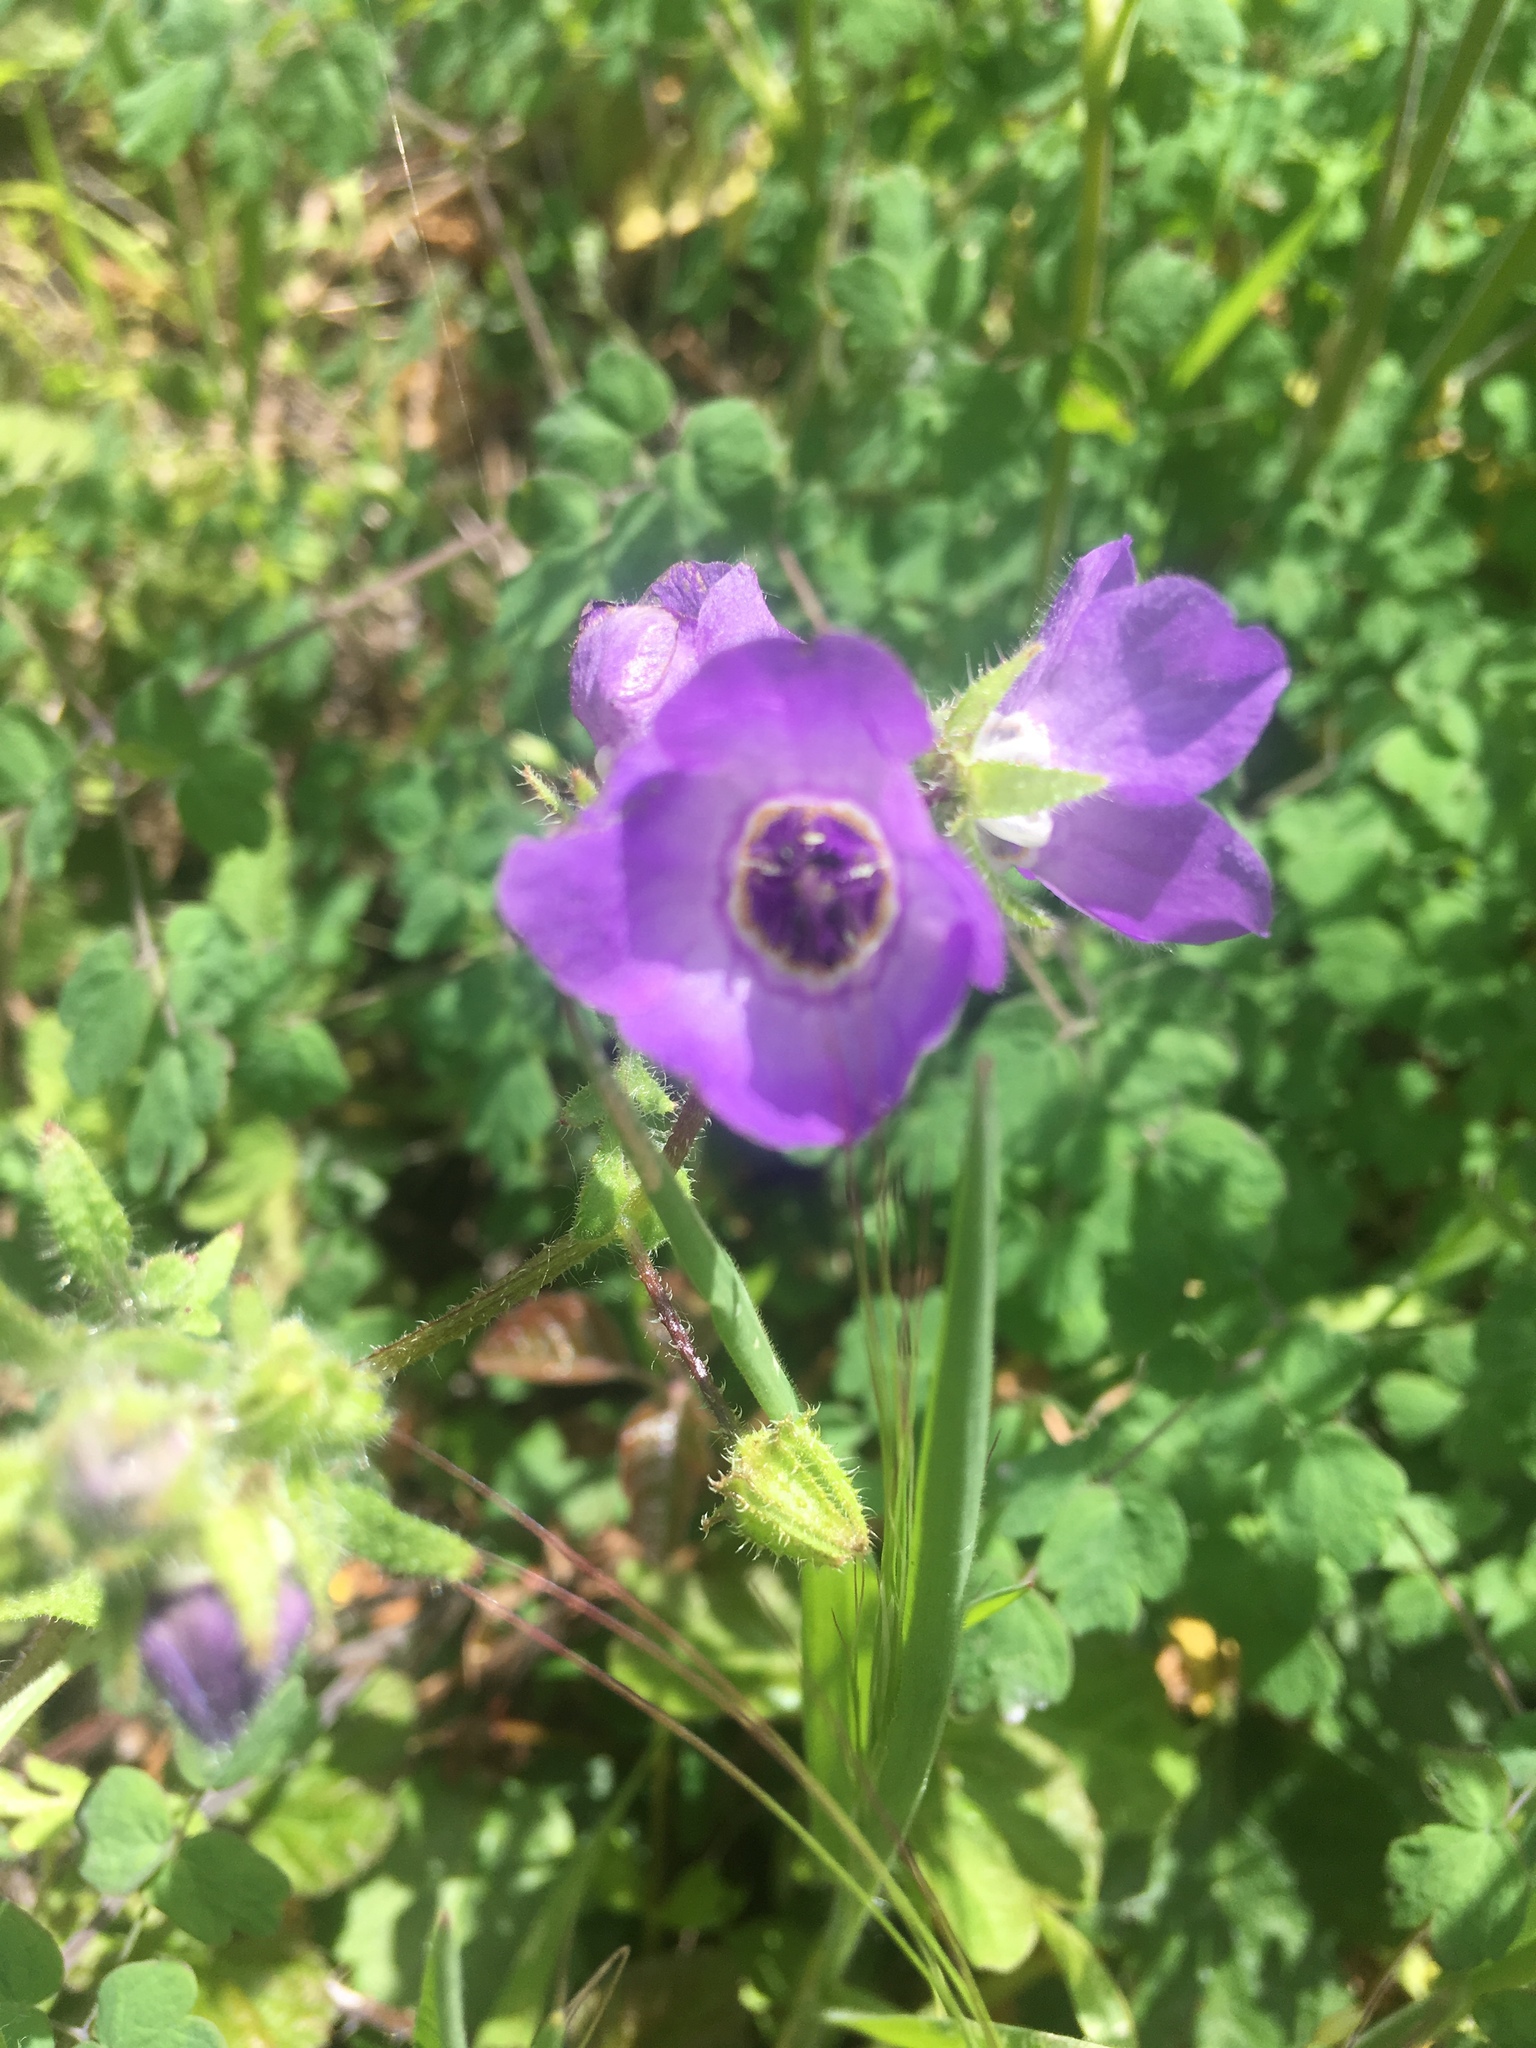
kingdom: Plantae
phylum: Tracheophyta
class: Magnoliopsida
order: Boraginales
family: Hydrophyllaceae
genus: Pholistoma
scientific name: Pholistoma auritum
